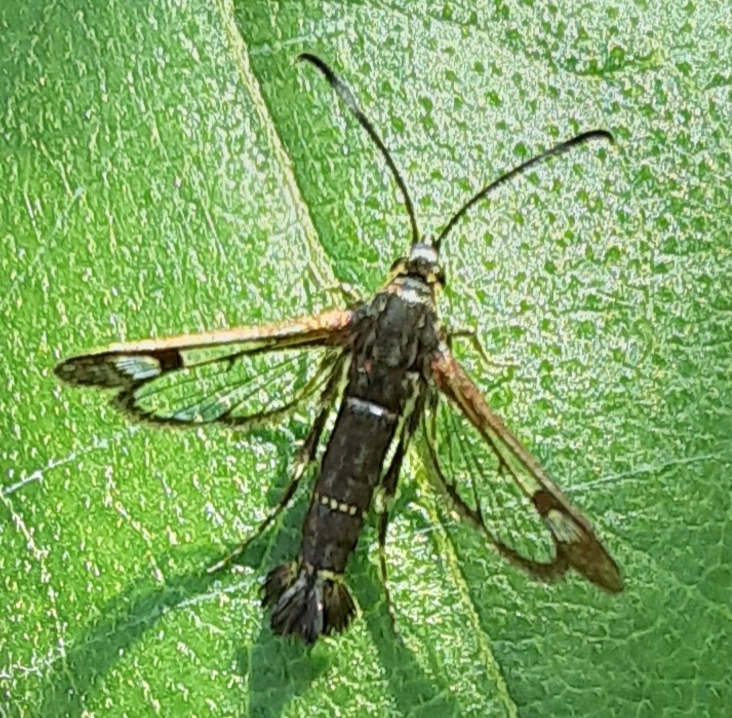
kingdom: Animalia
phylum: Arthropoda
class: Insecta
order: Lepidoptera
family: Sesiidae
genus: Carmenta
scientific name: Carmenta ithacae
